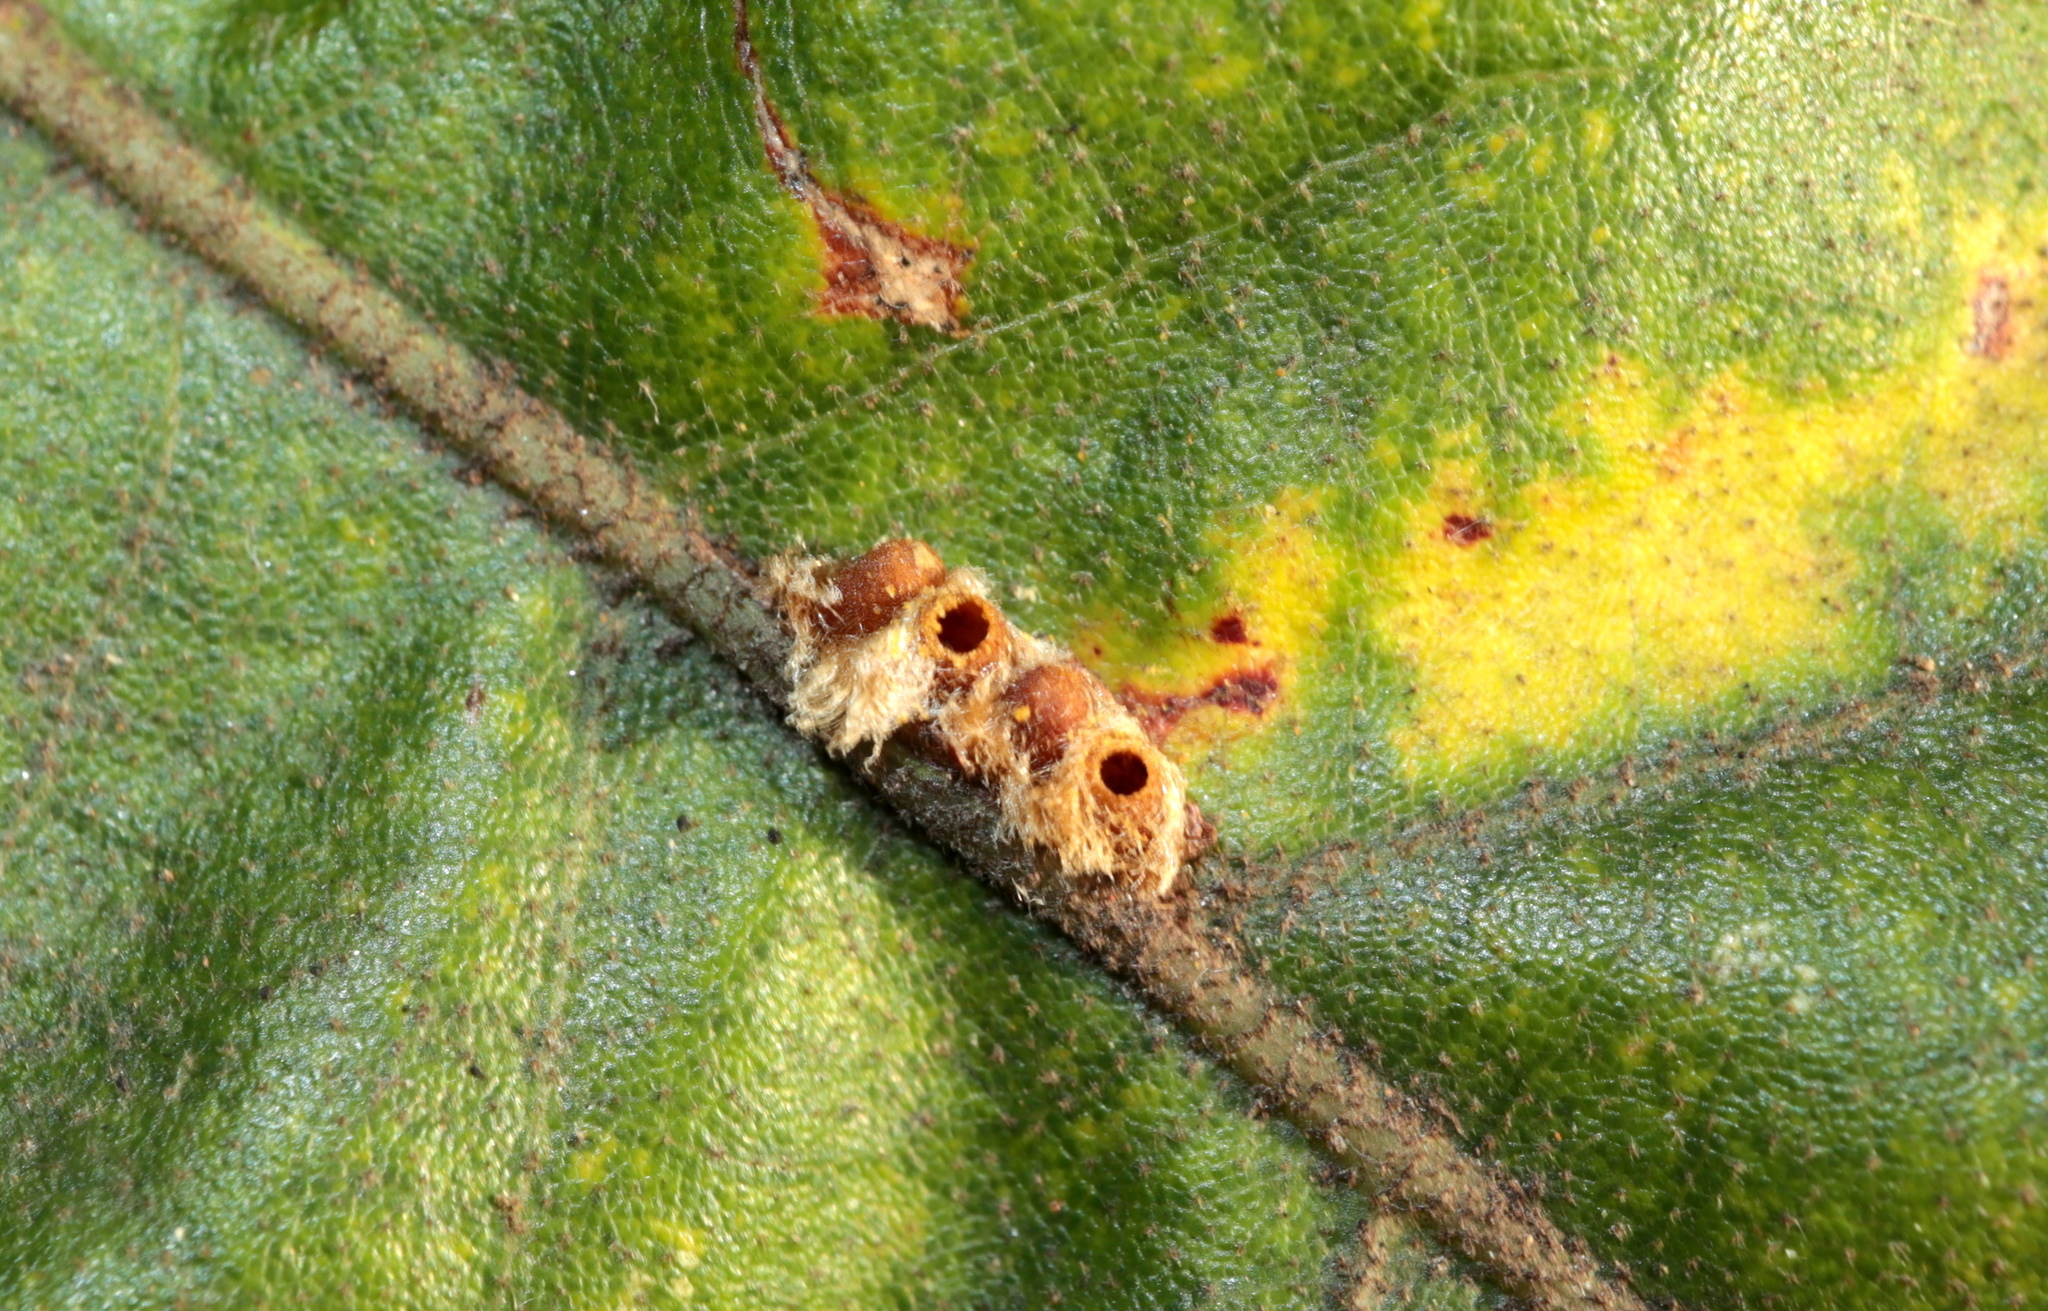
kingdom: Animalia
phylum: Arthropoda
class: Insecta
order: Hymenoptera
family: Cynipidae
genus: Andricus
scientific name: Andricus Druon pattoni
